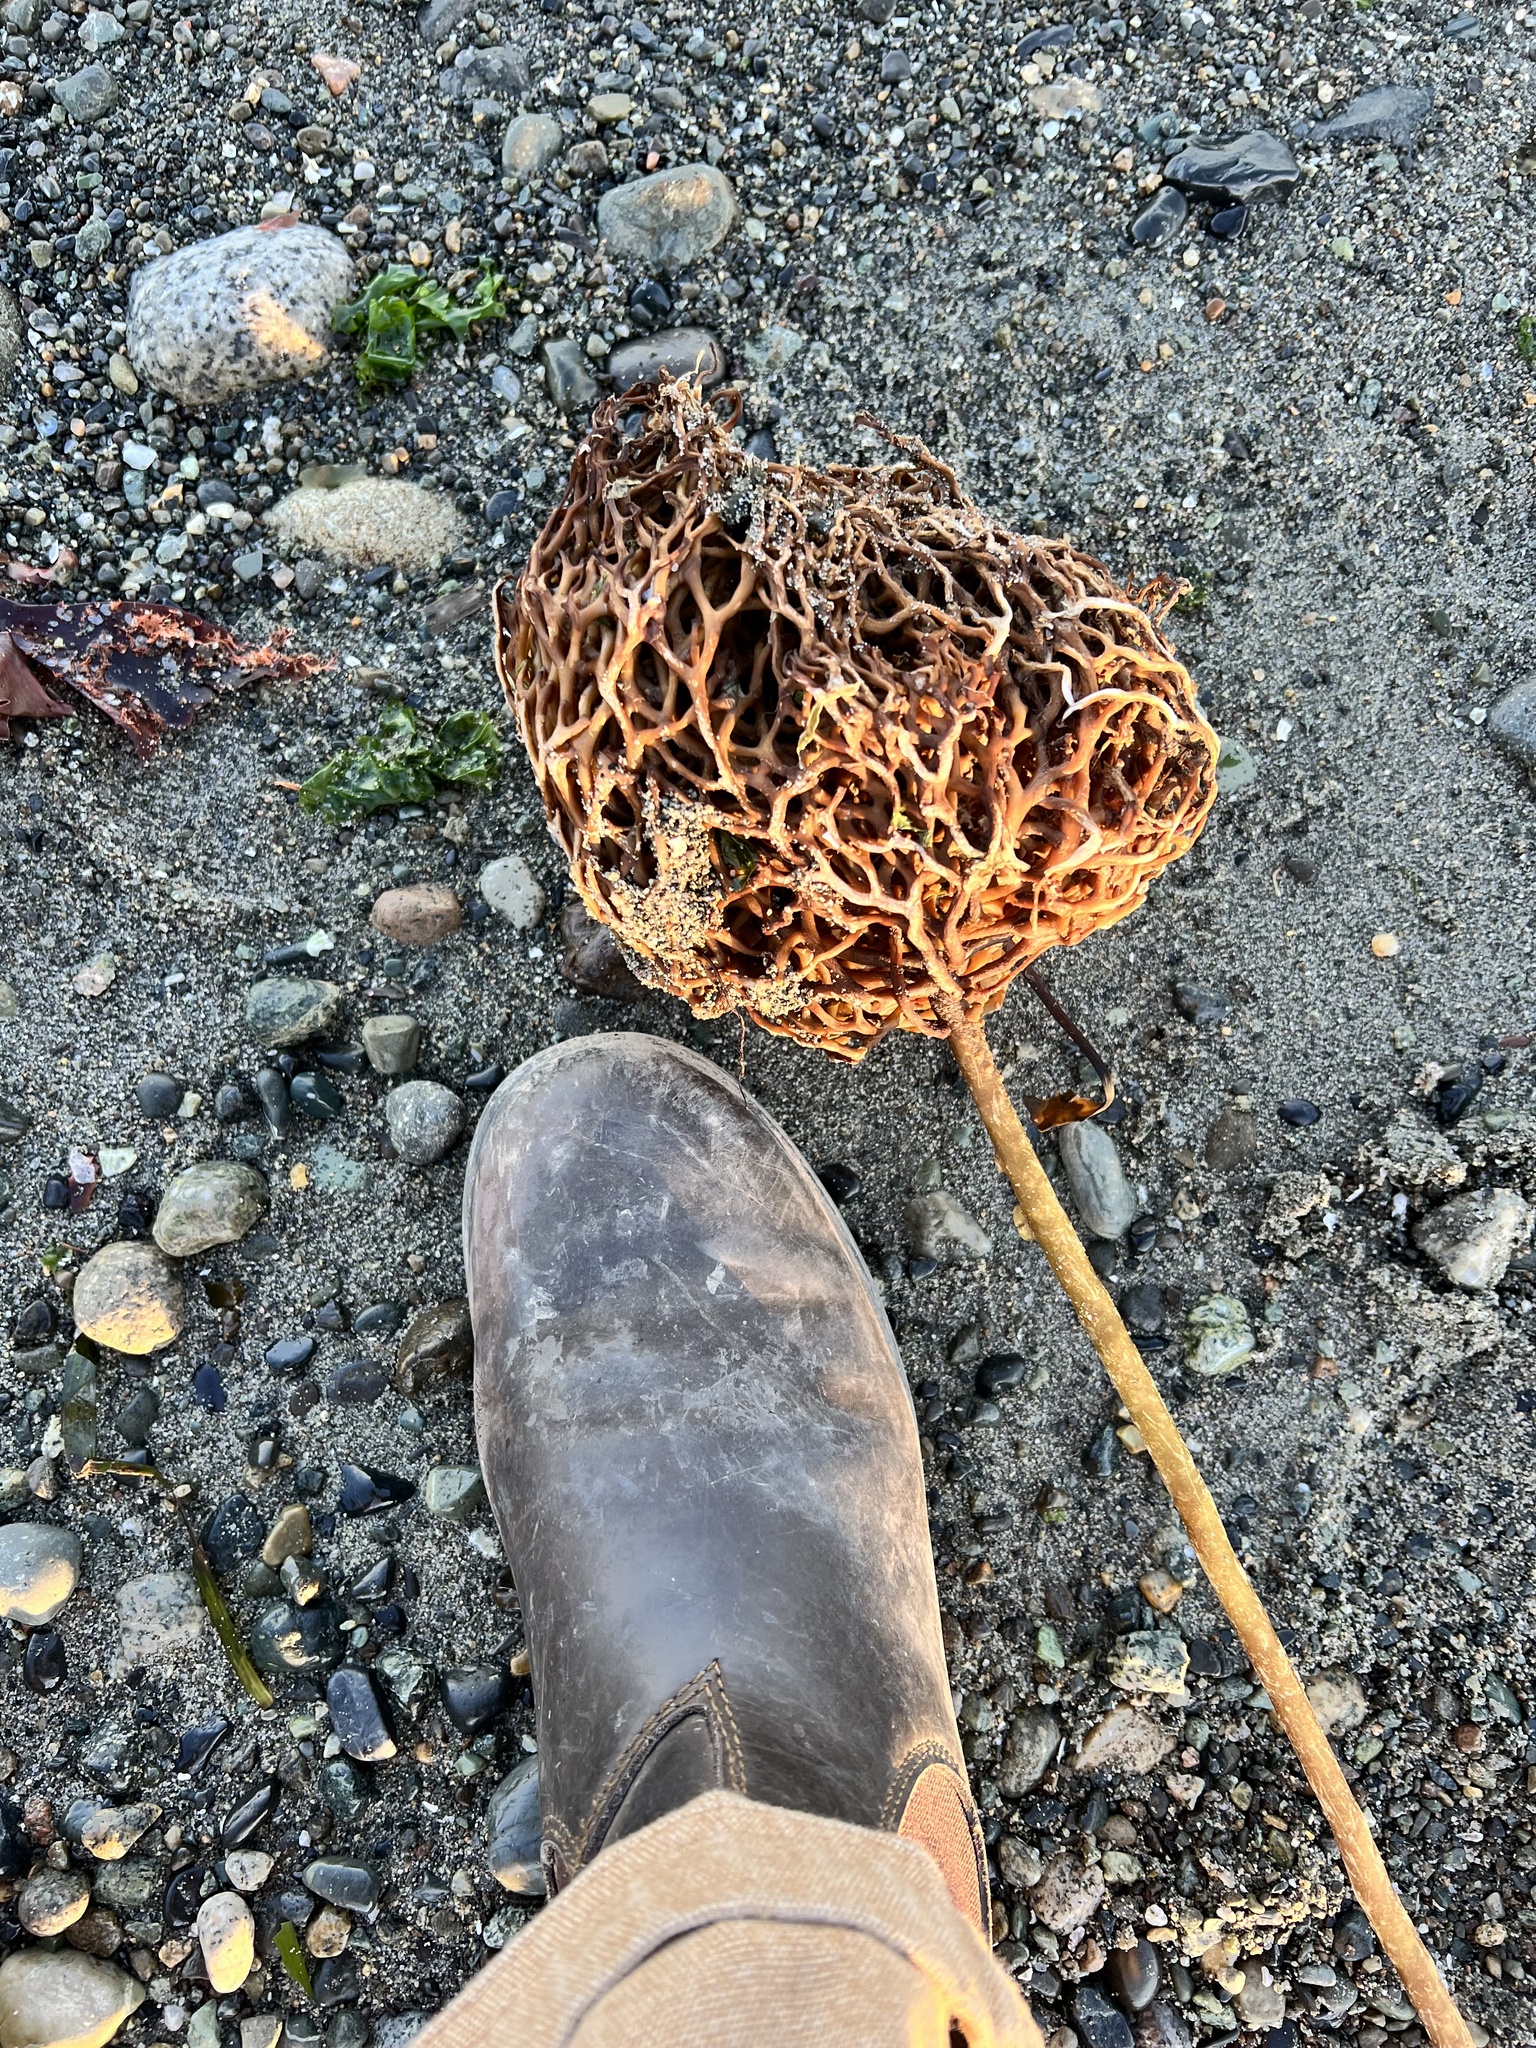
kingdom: Chromista
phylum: Ochrophyta
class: Phaeophyceae
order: Laminariales
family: Laminariaceae
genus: Nereocystis
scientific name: Nereocystis luetkeana
